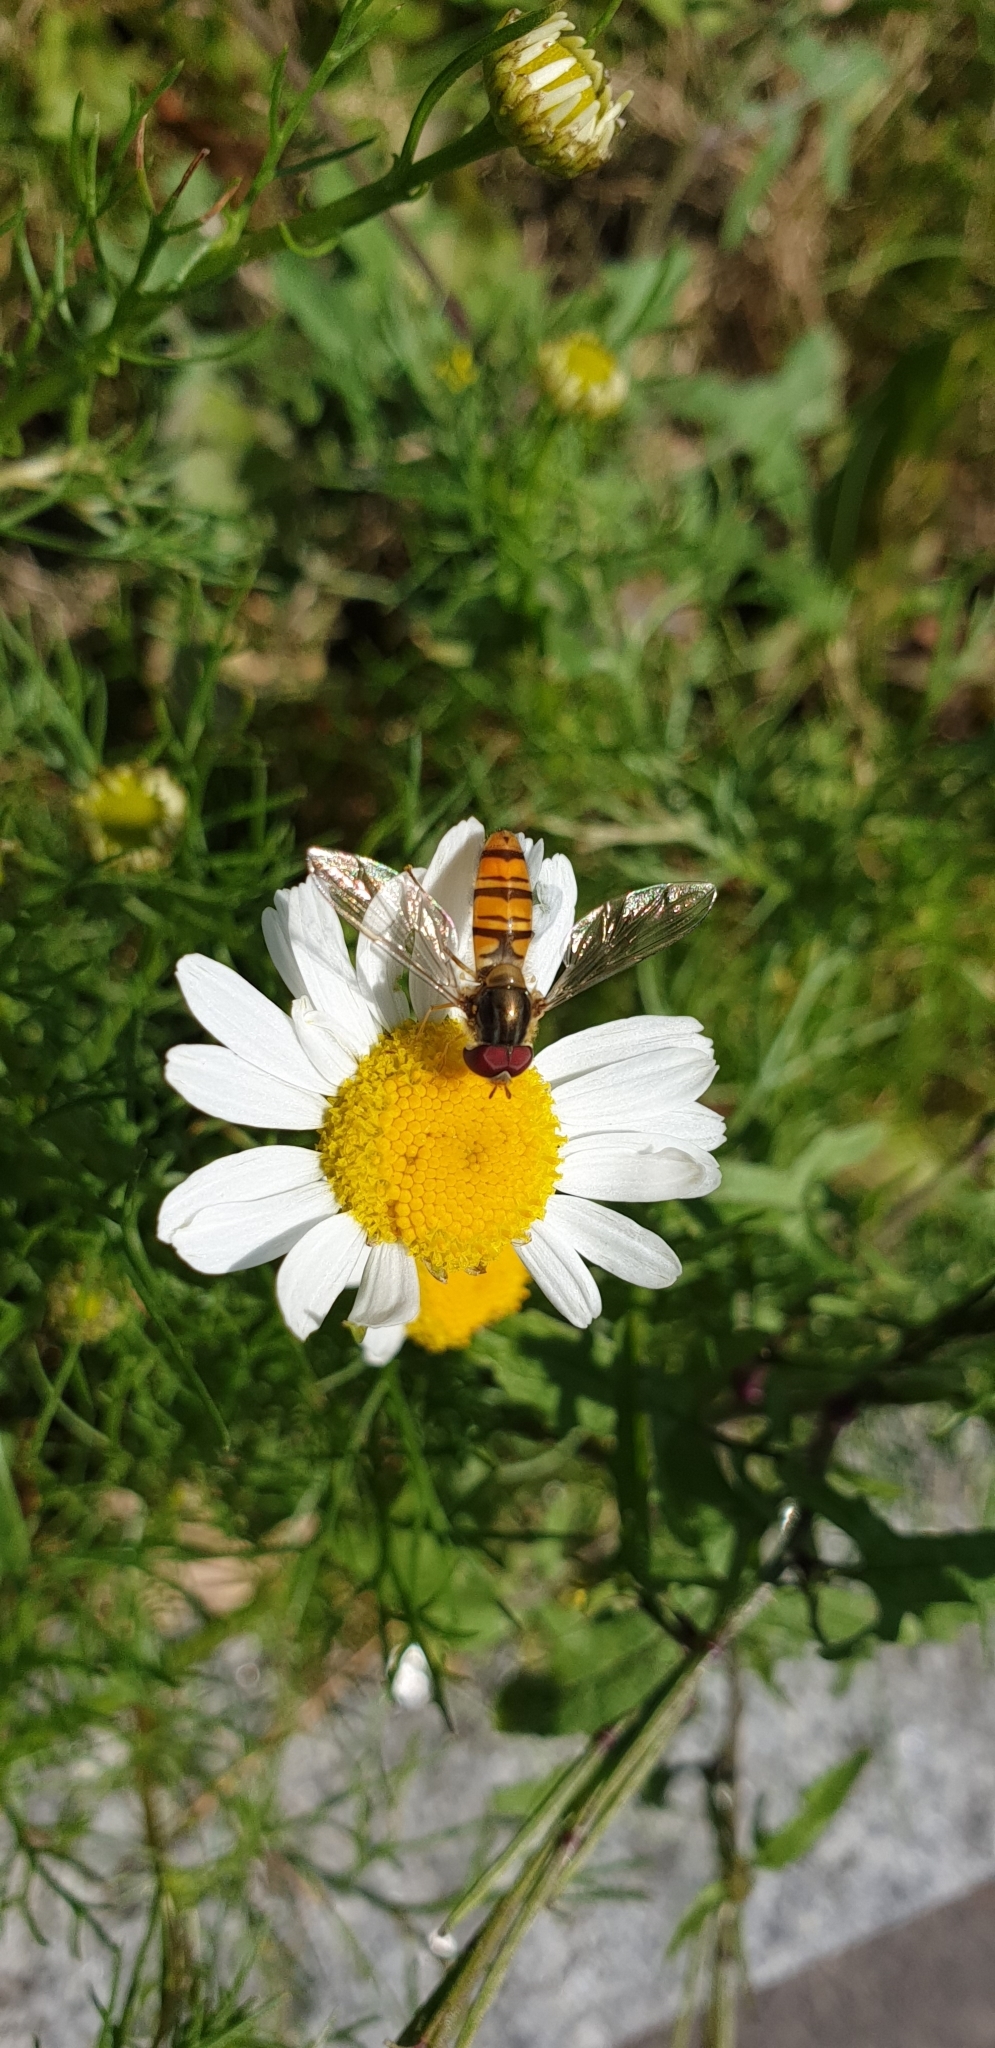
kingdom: Animalia
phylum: Arthropoda
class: Insecta
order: Diptera
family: Syrphidae
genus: Episyrphus
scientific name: Episyrphus balteatus
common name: Marmalade hoverfly
